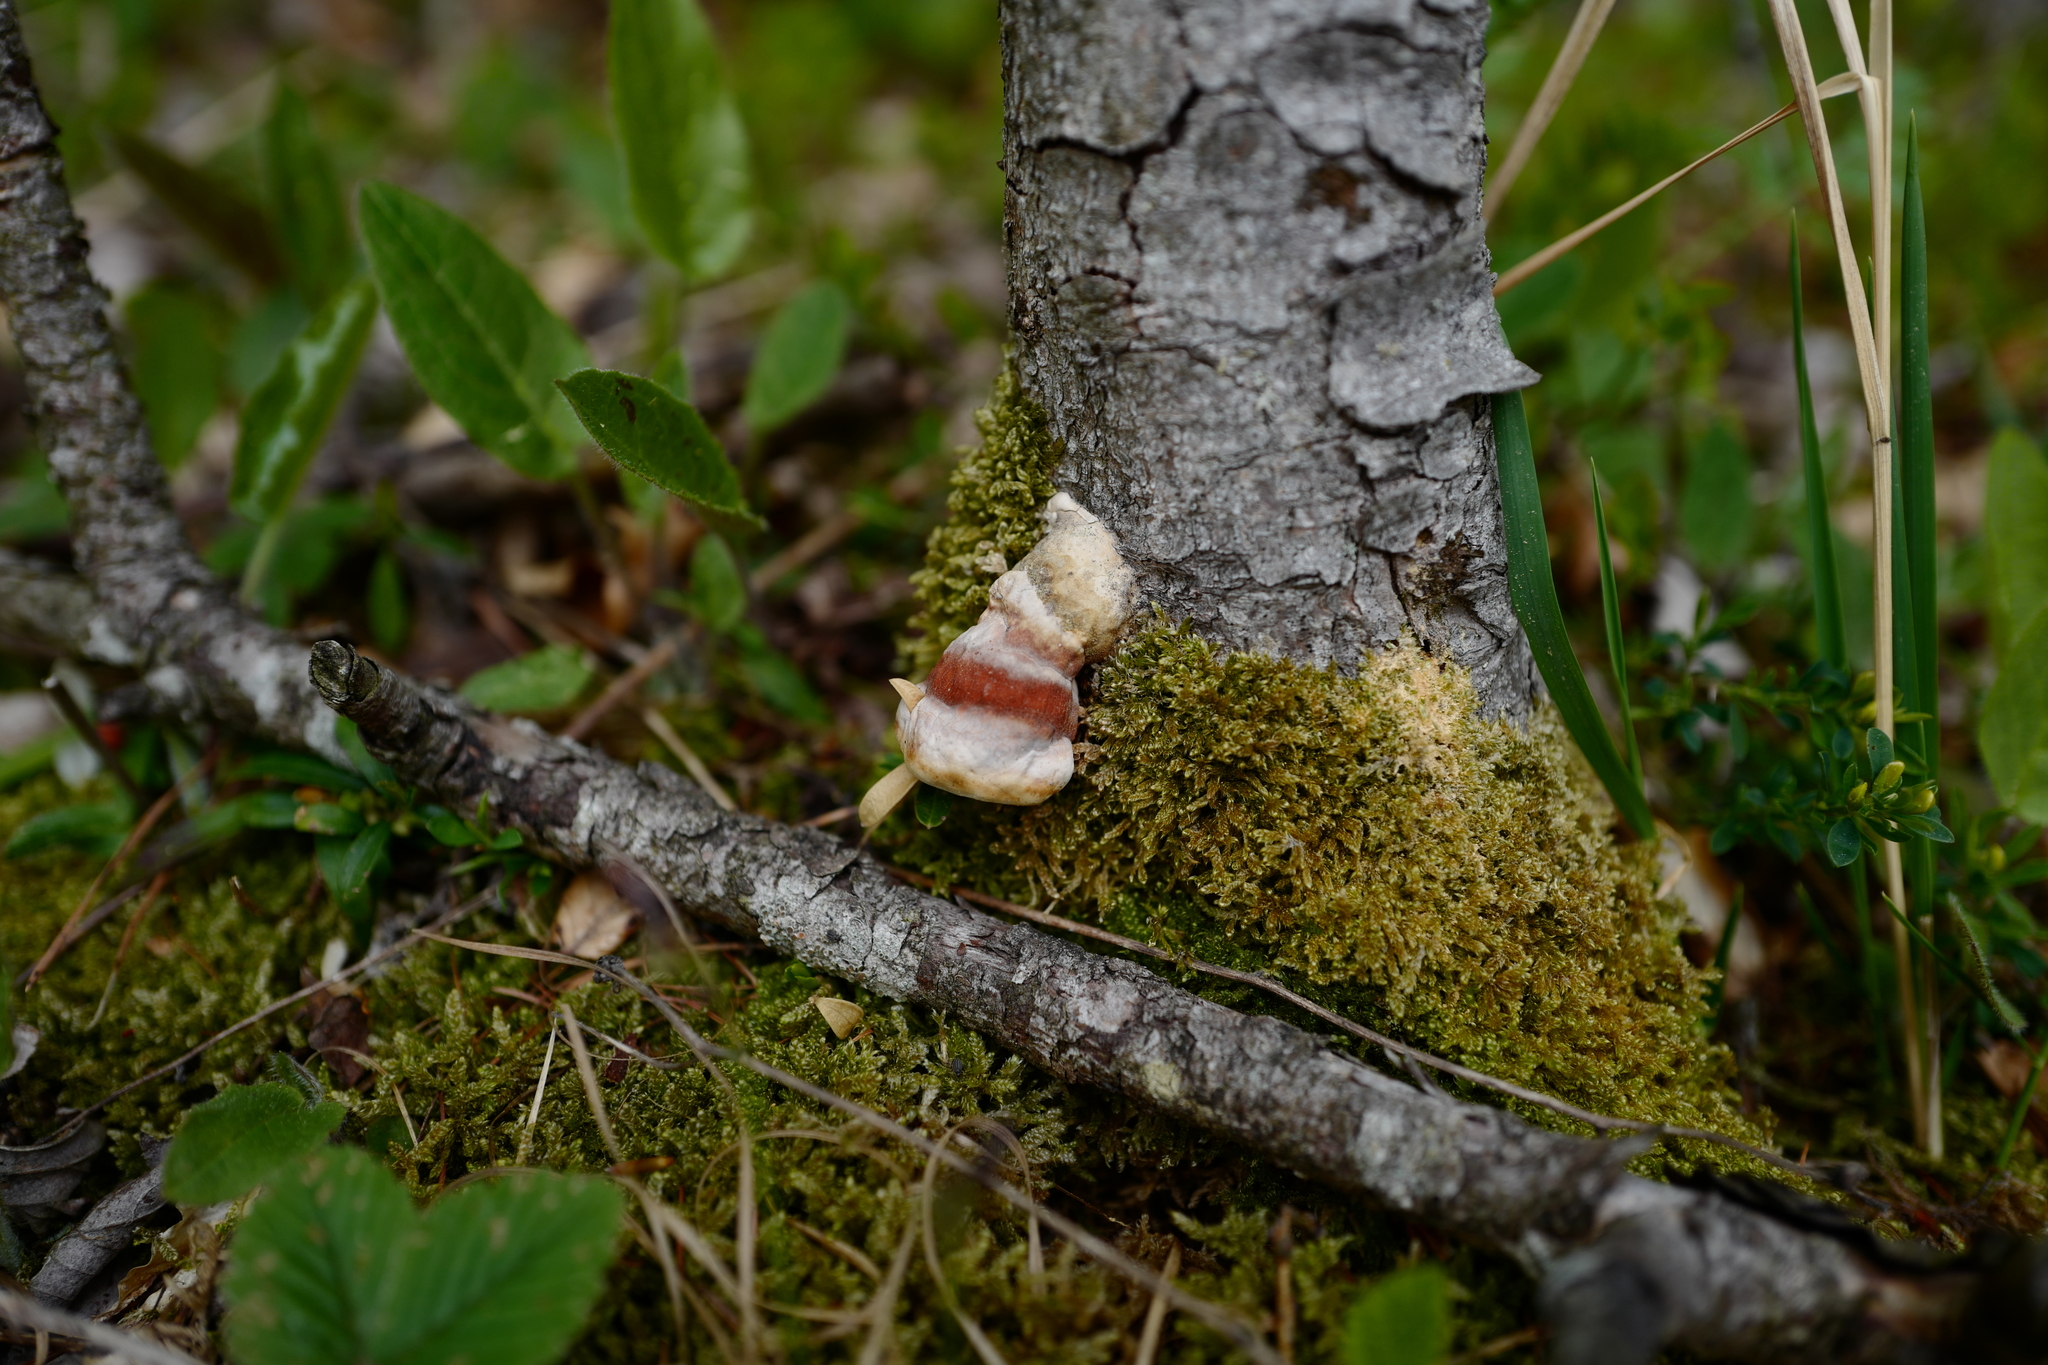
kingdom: Fungi
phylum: Basidiomycota
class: Agaricomycetes
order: Polyporales
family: Fomitopsidaceae
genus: Fomitopsis
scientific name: Fomitopsis pinicola
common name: Red-belted bracket
